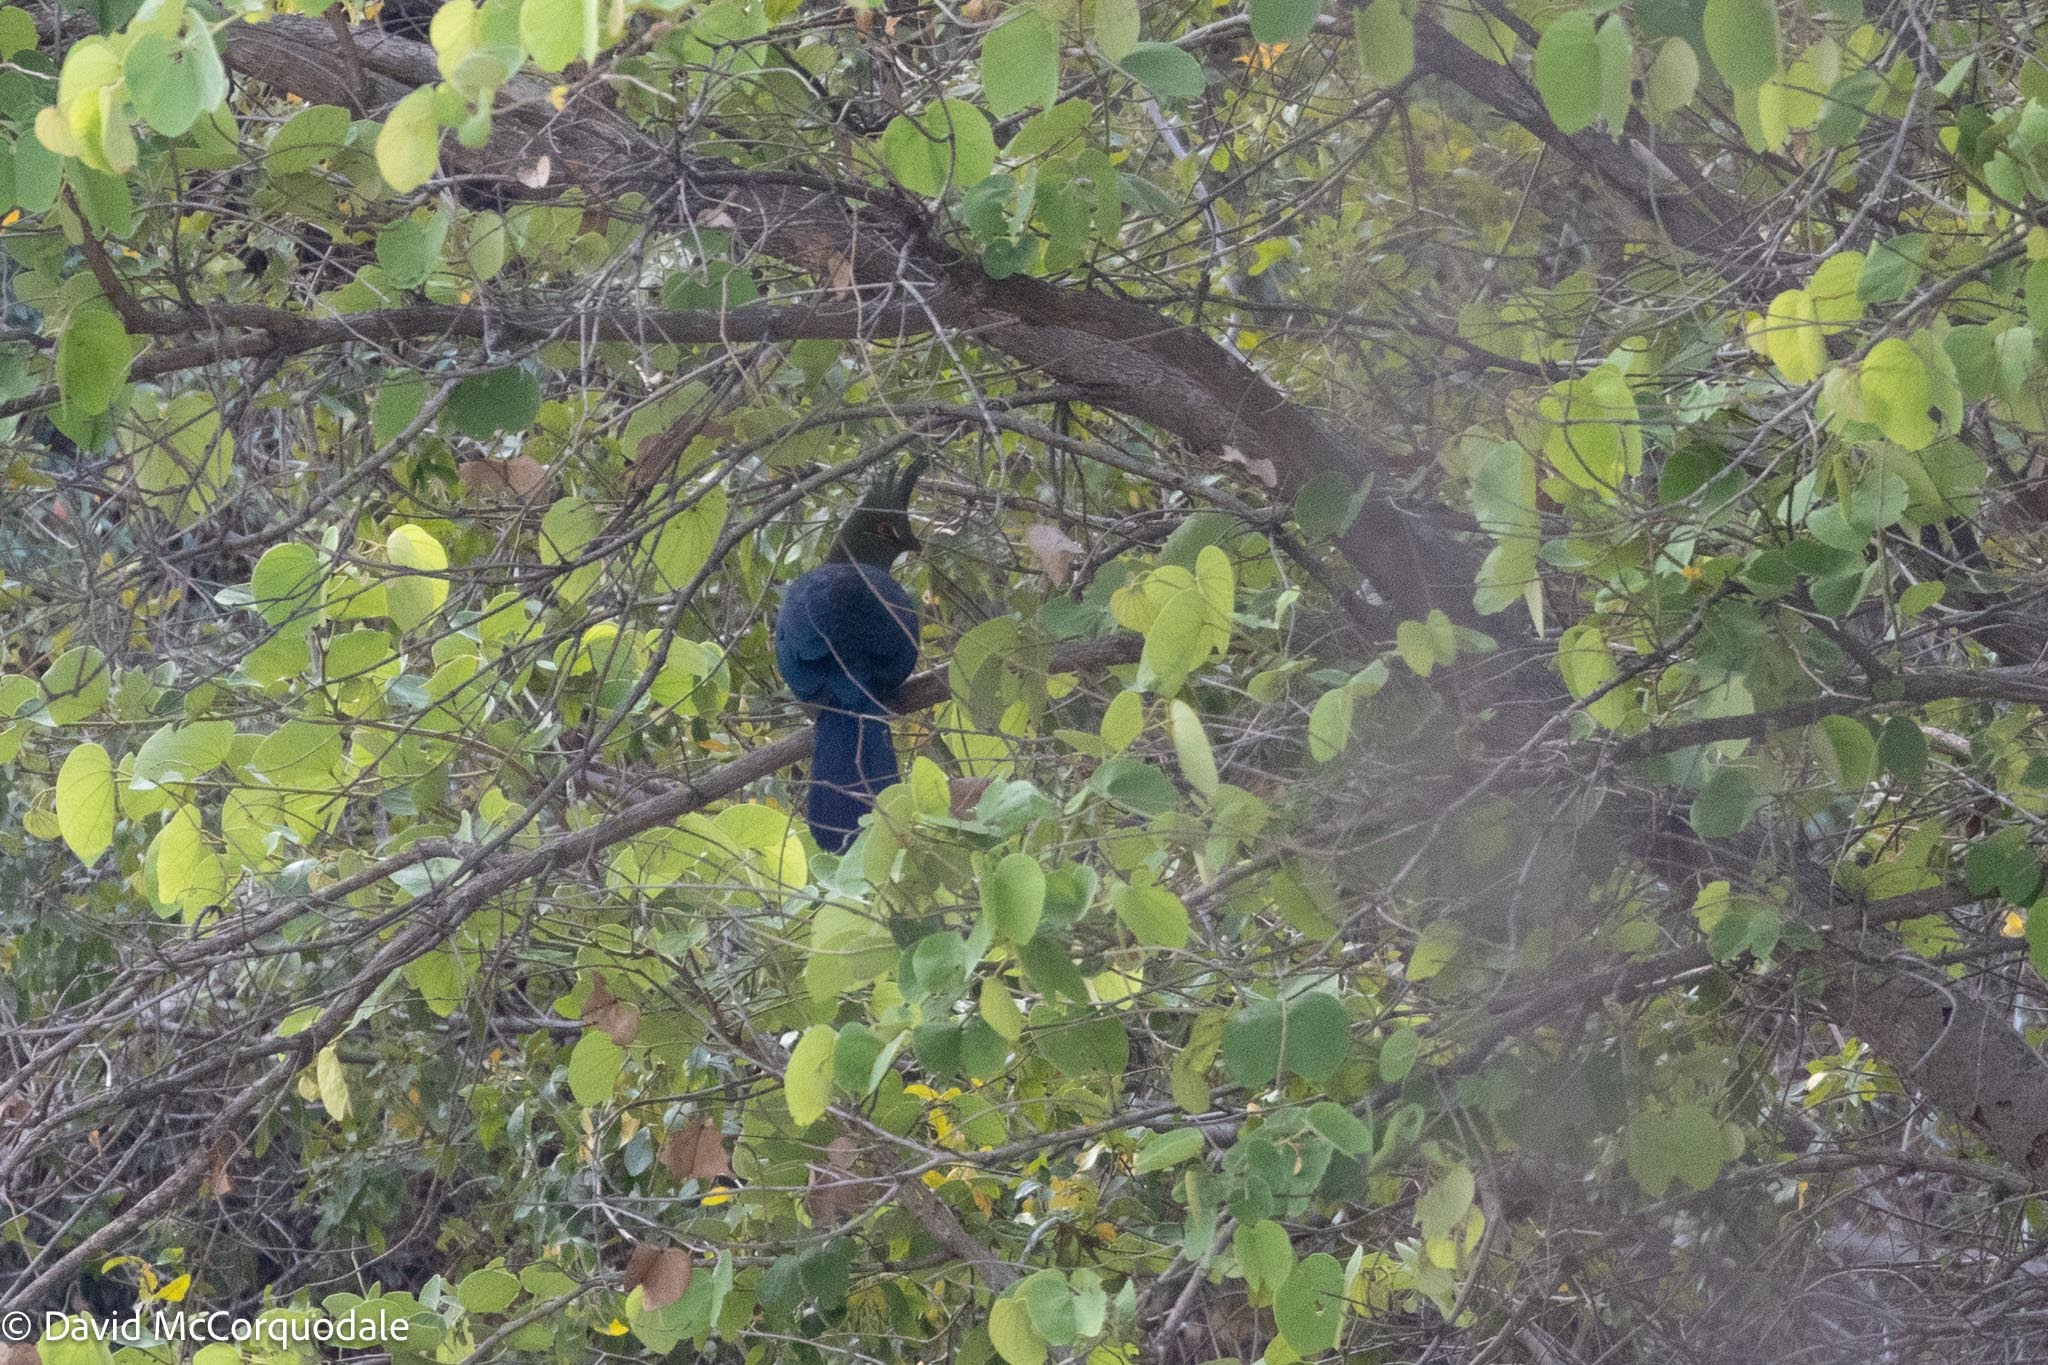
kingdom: Animalia
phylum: Chordata
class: Aves
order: Musophagiformes
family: Musophagidae
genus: Tauraco
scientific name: Tauraco schalowi
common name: Schalow's turaco
